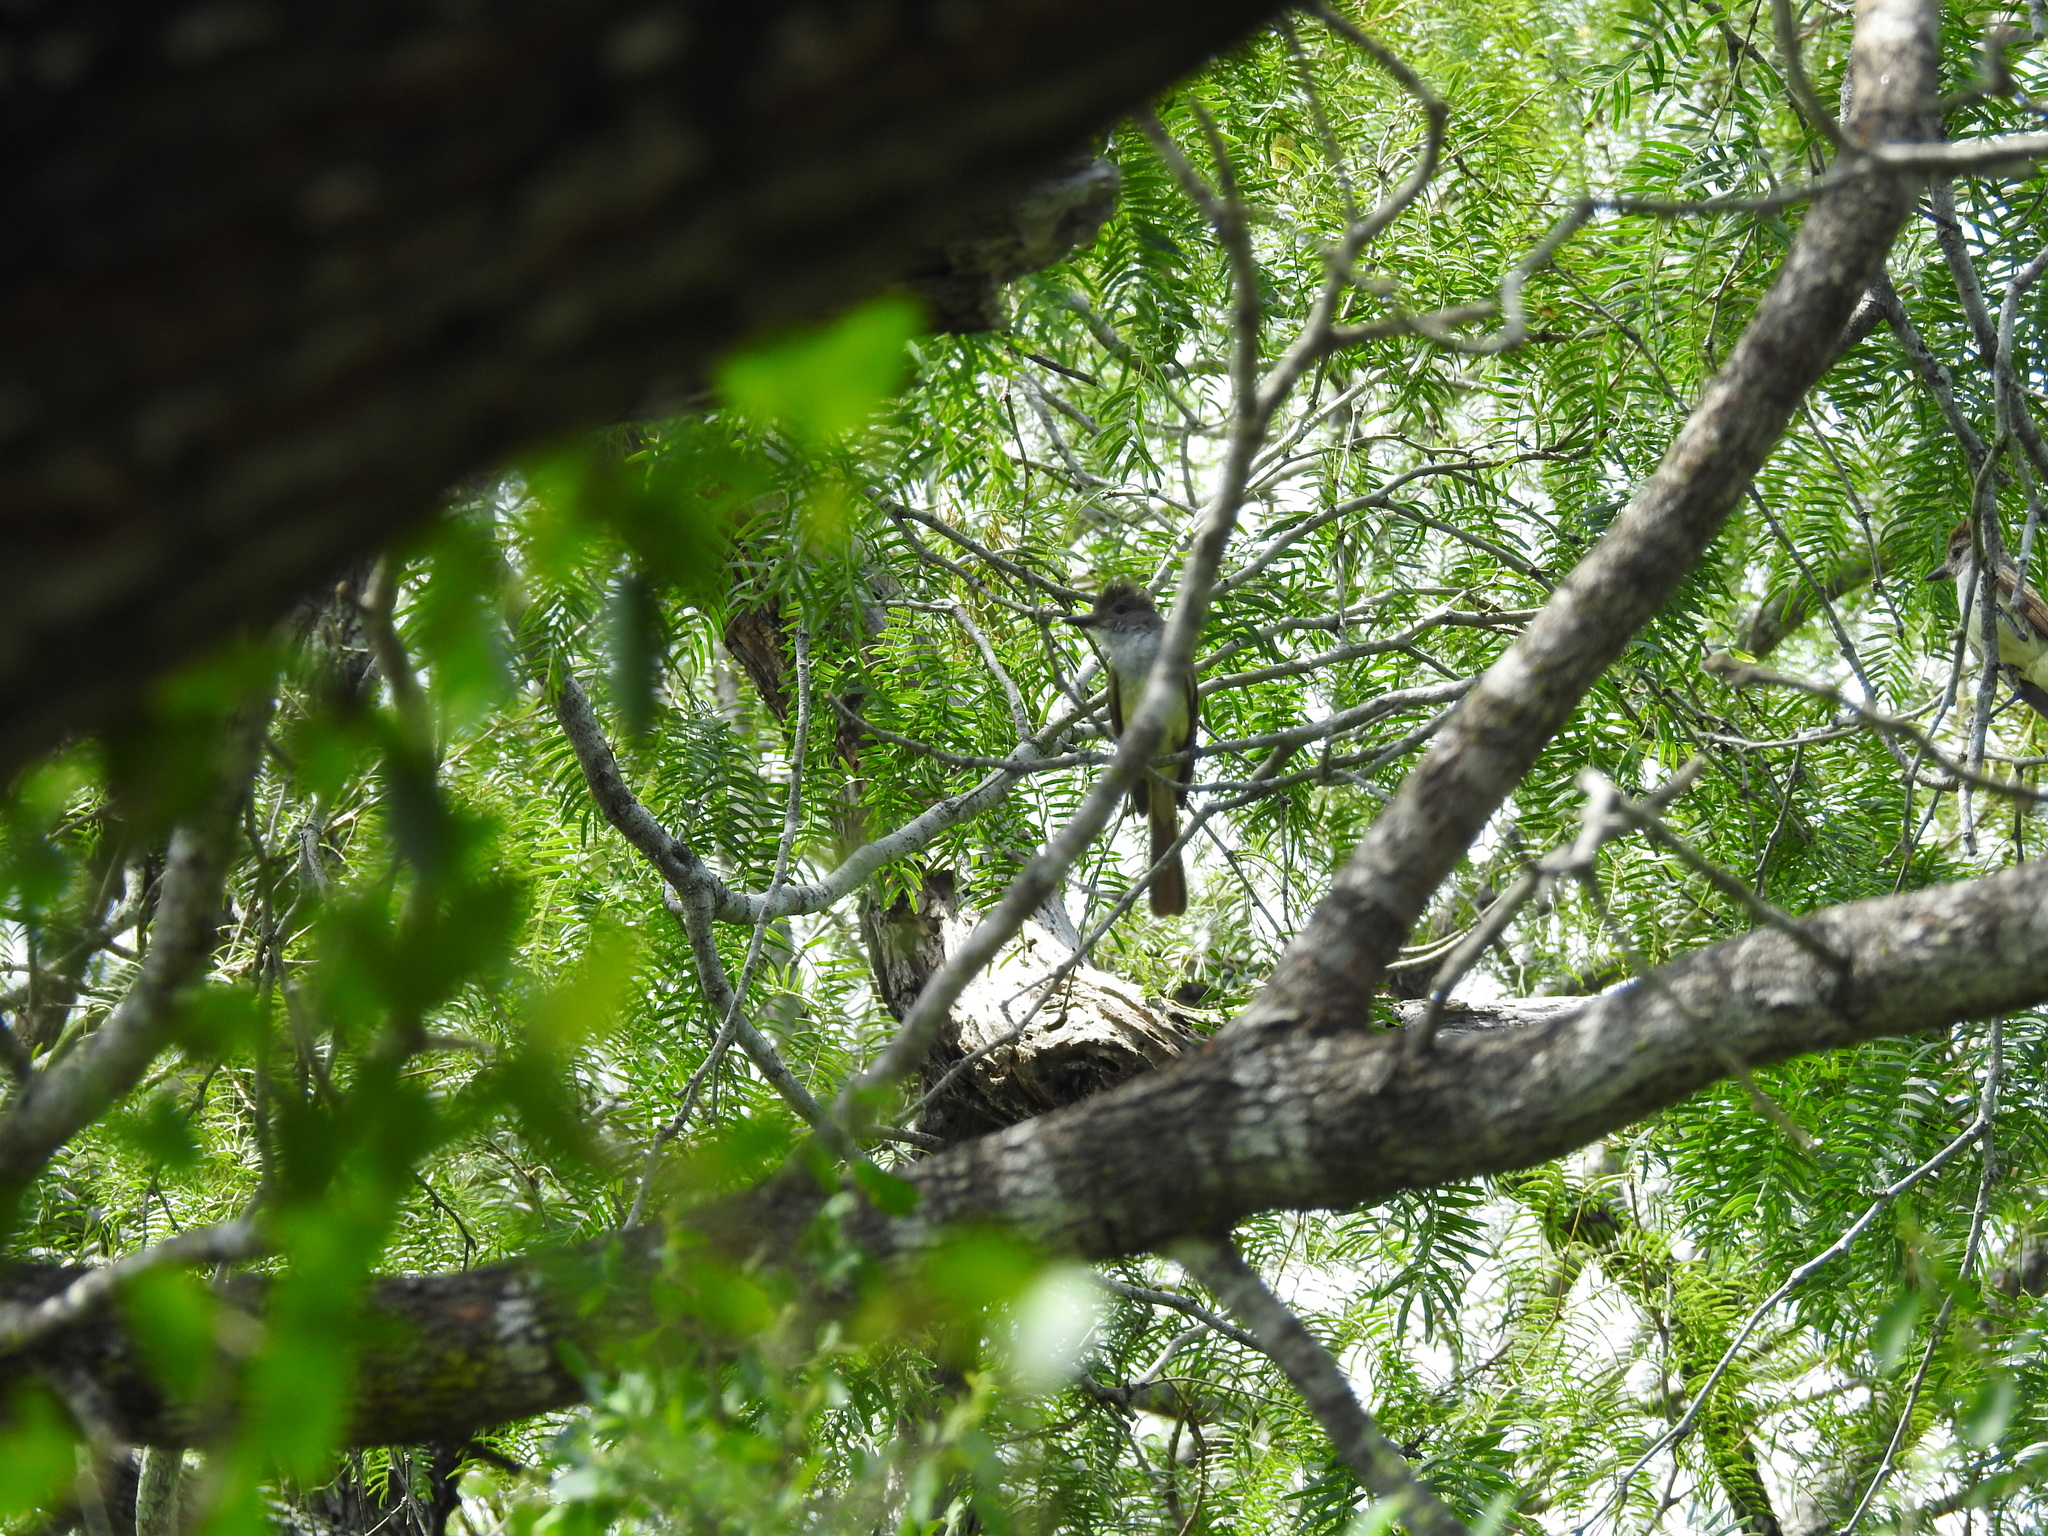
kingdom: Animalia
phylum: Chordata
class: Aves
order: Passeriformes
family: Tyrannidae
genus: Myiarchus
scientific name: Myiarchus tyrannulus
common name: Brown-crested flycatcher
